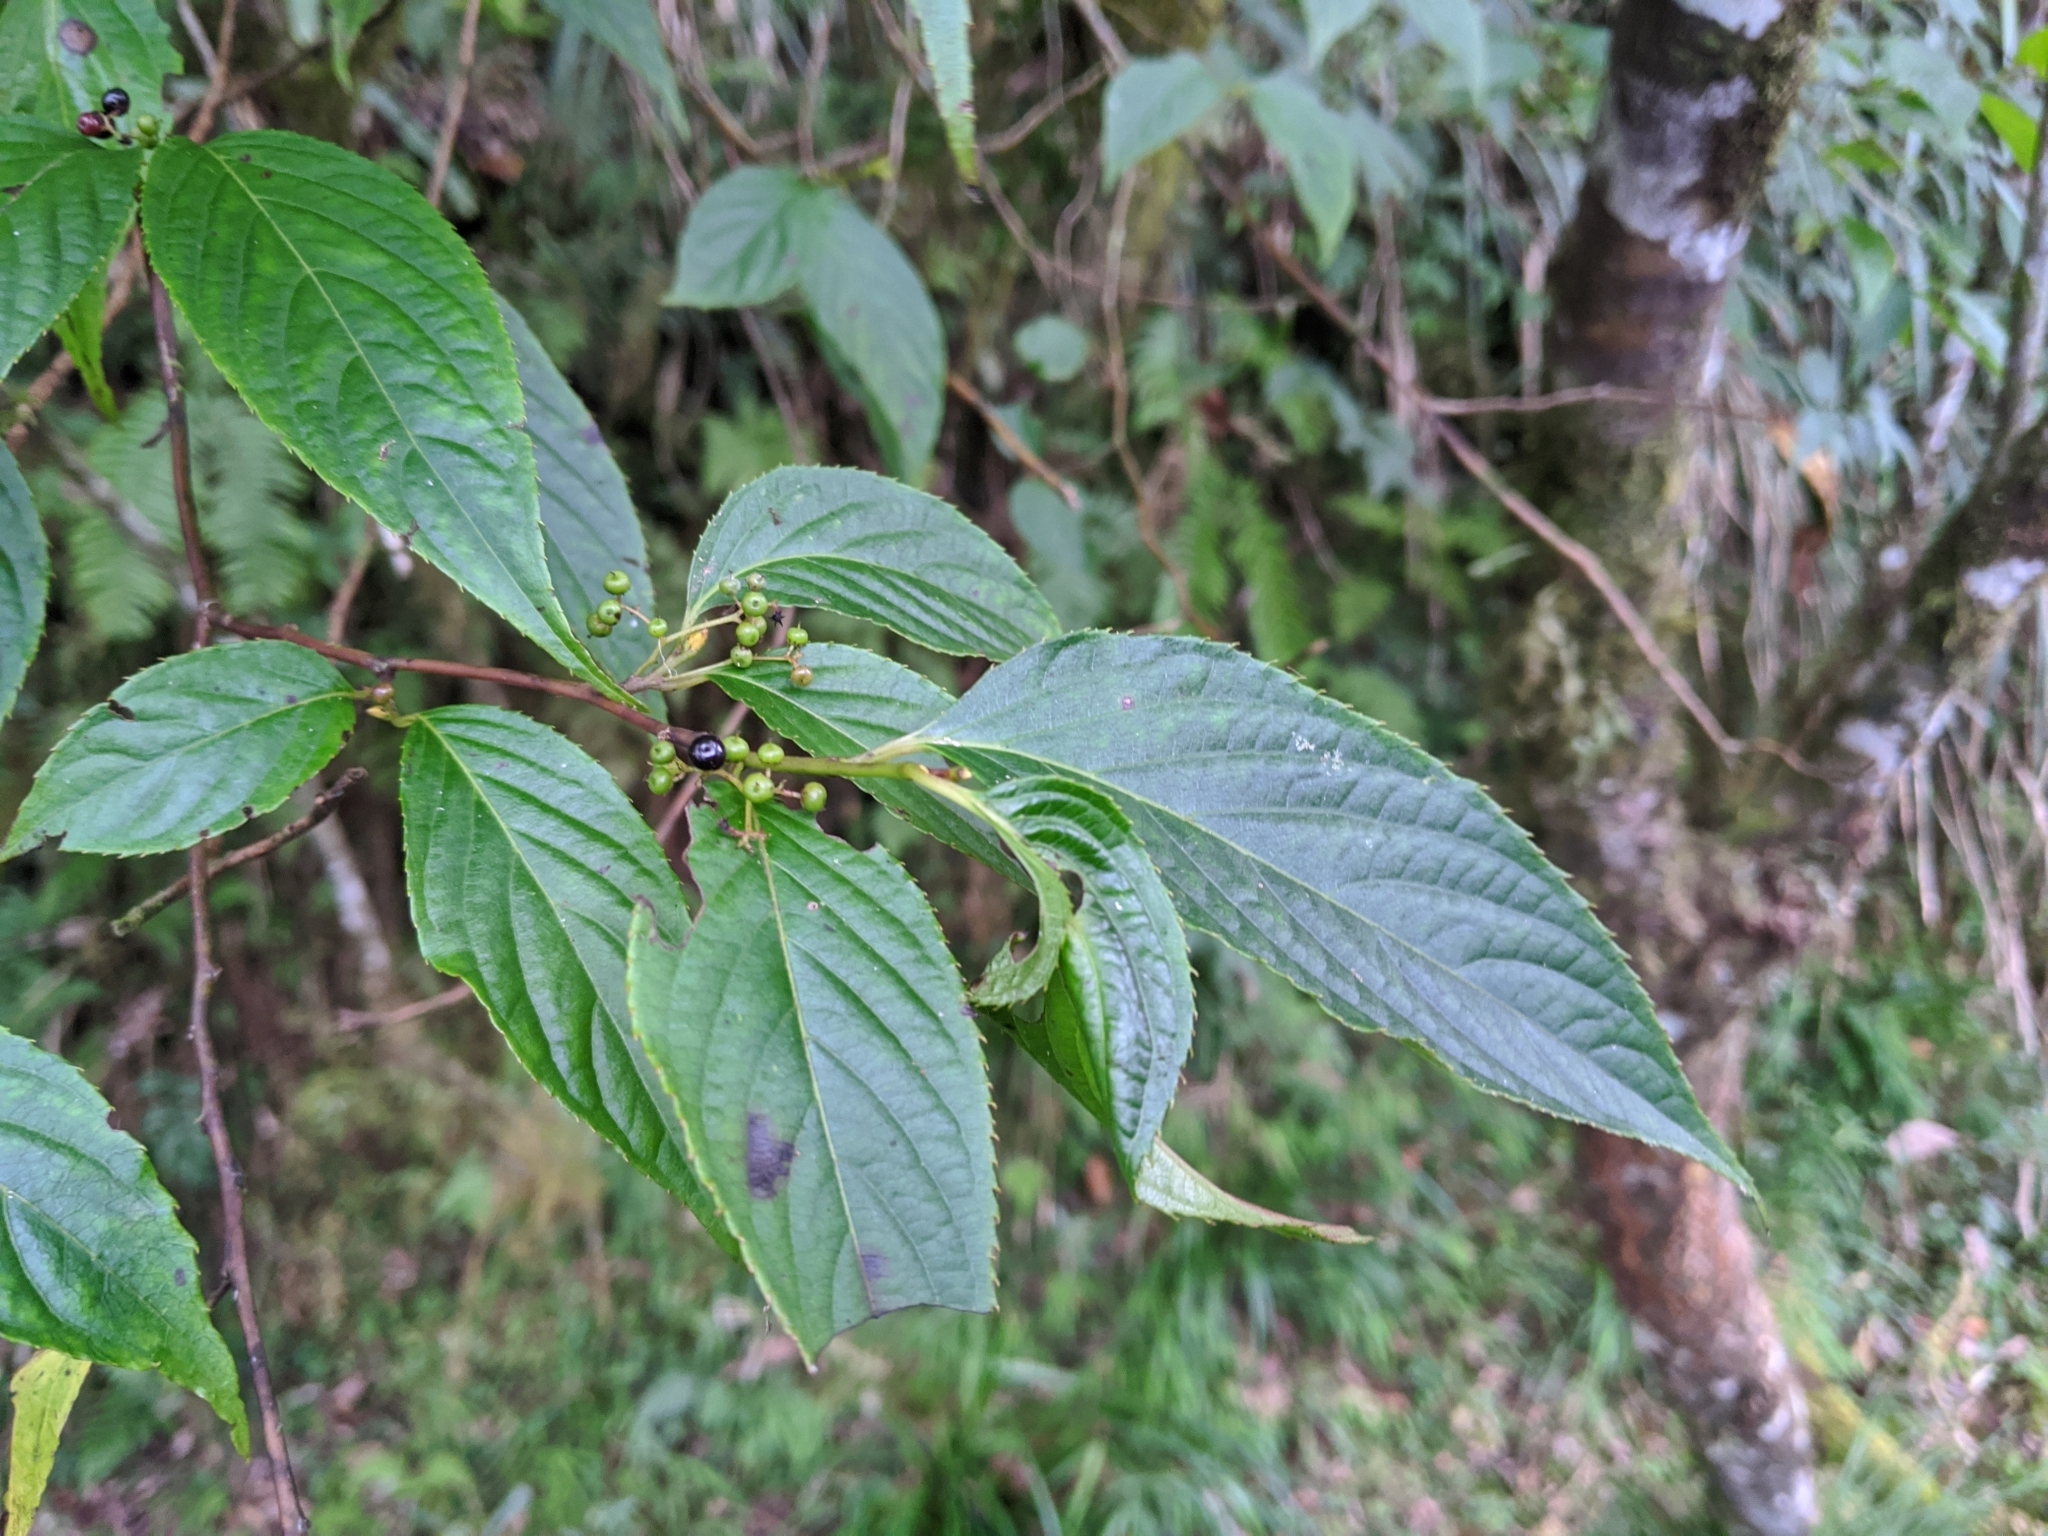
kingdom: Plantae
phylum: Tracheophyta
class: Magnoliopsida
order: Huerteales
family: Dipentodontaceae
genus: Perrottetia
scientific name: Perrottetia arisanensis
